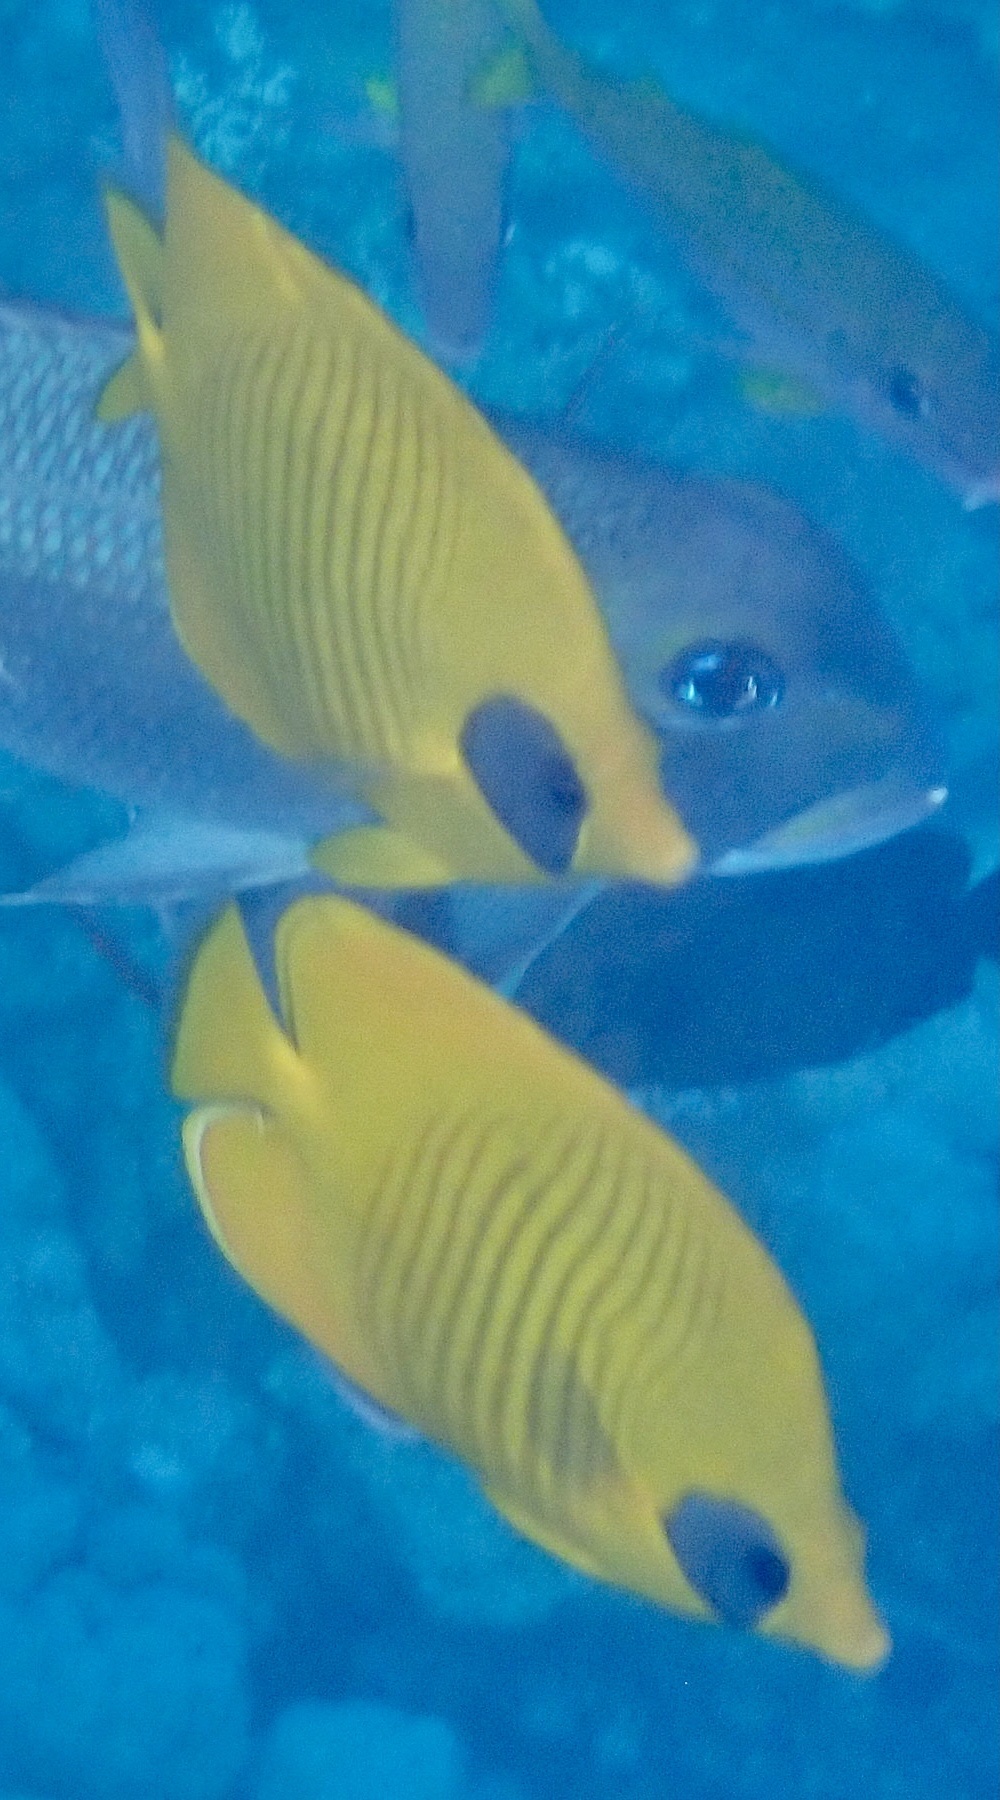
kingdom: Animalia
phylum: Chordata
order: Perciformes
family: Chaetodontidae
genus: Chaetodon
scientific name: Chaetodon semilarvatus
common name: Golden butterflyfish
